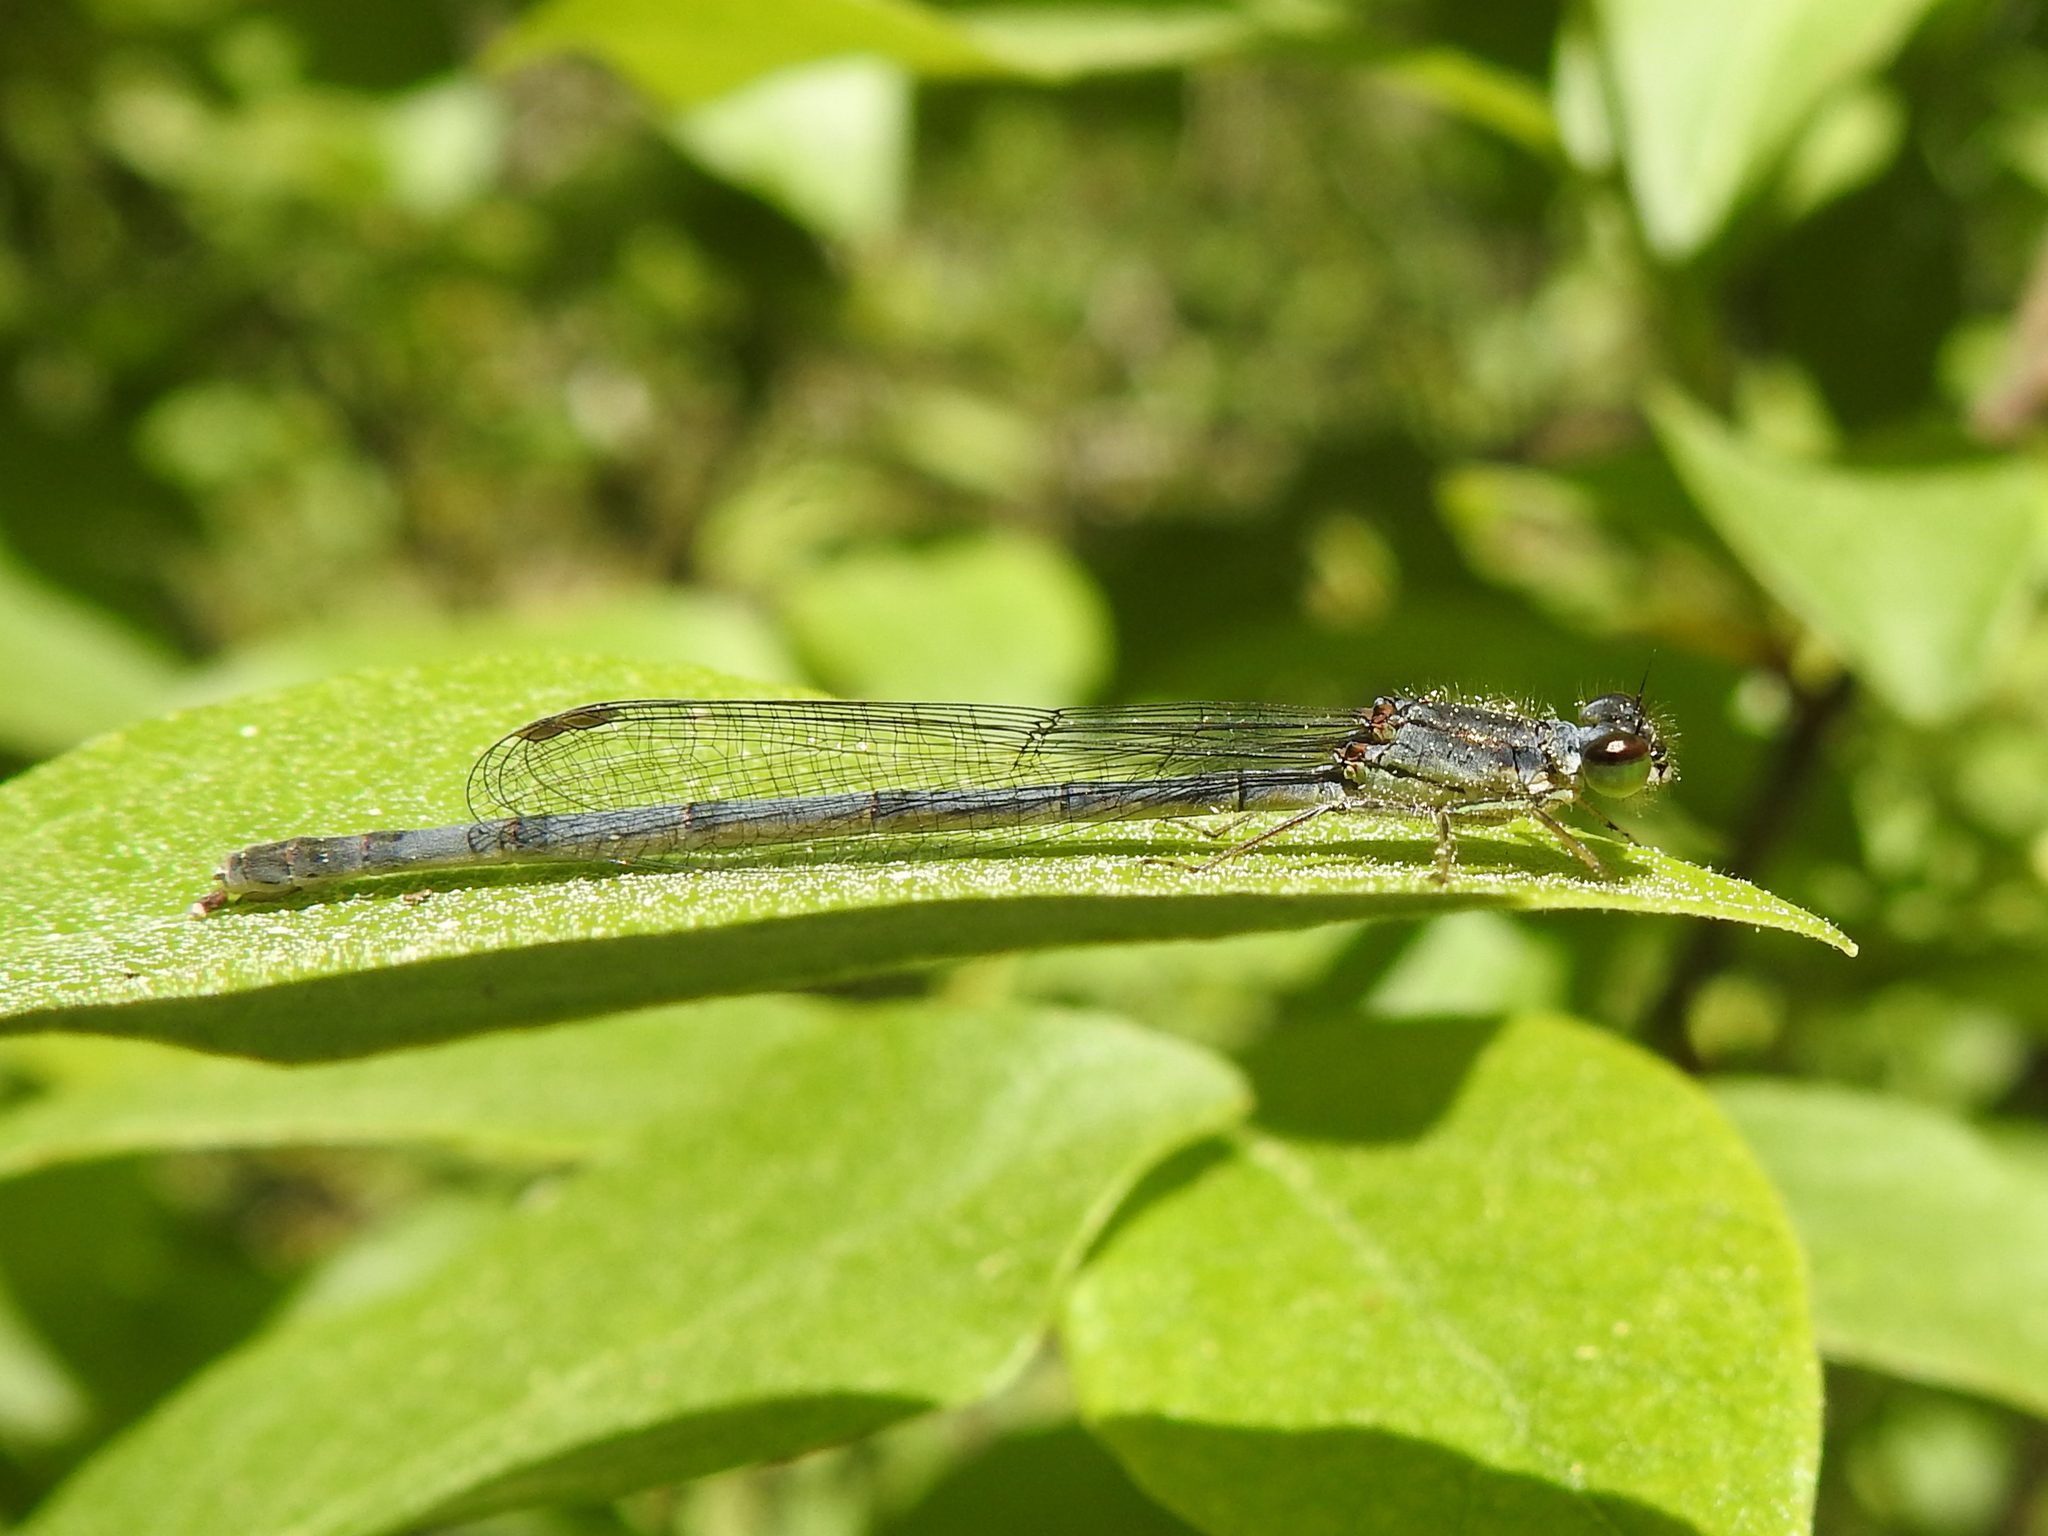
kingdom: Animalia
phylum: Arthropoda
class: Insecta
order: Odonata
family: Coenagrionidae
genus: Ischnura
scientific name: Ischnura posita
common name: Fragile forktail
